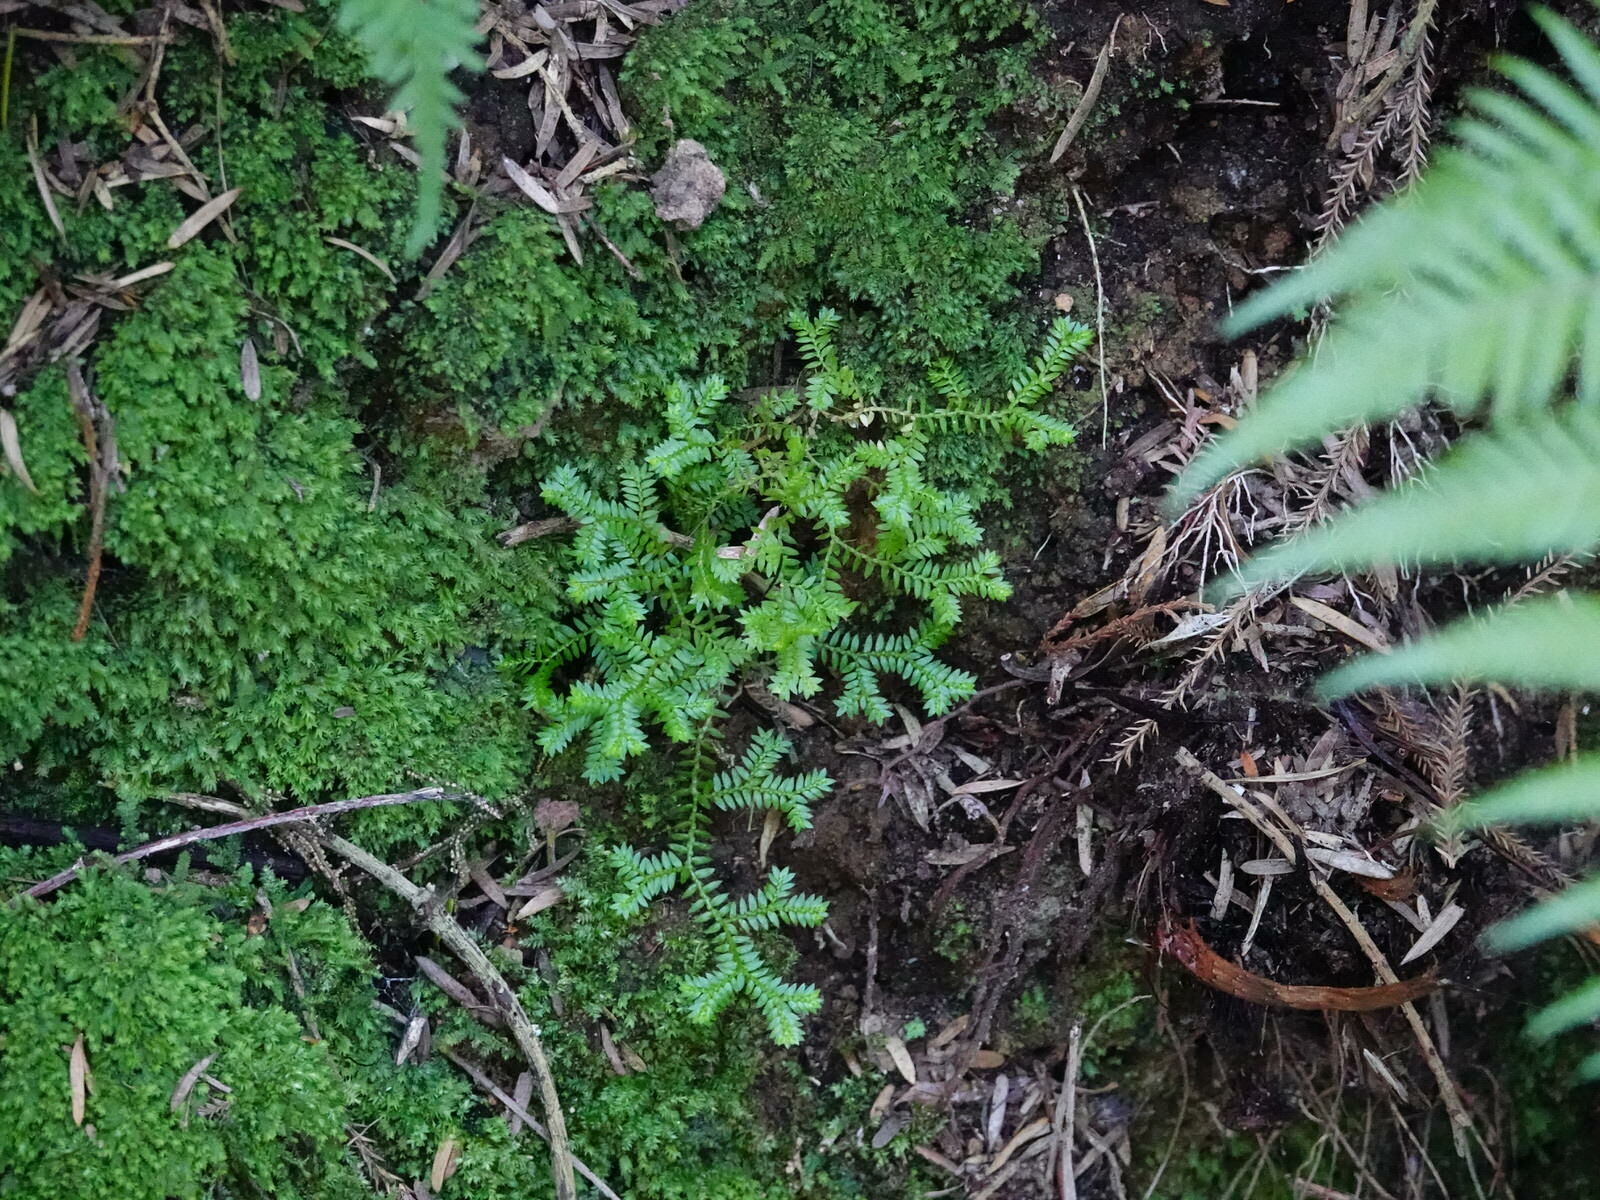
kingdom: Plantae
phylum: Tracheophyta
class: Lycopodiopsida
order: Selaginellales
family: Selaginellaceae
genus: Selaginella
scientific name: Selaginella kraussiana
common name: Krauss' spikemoss
